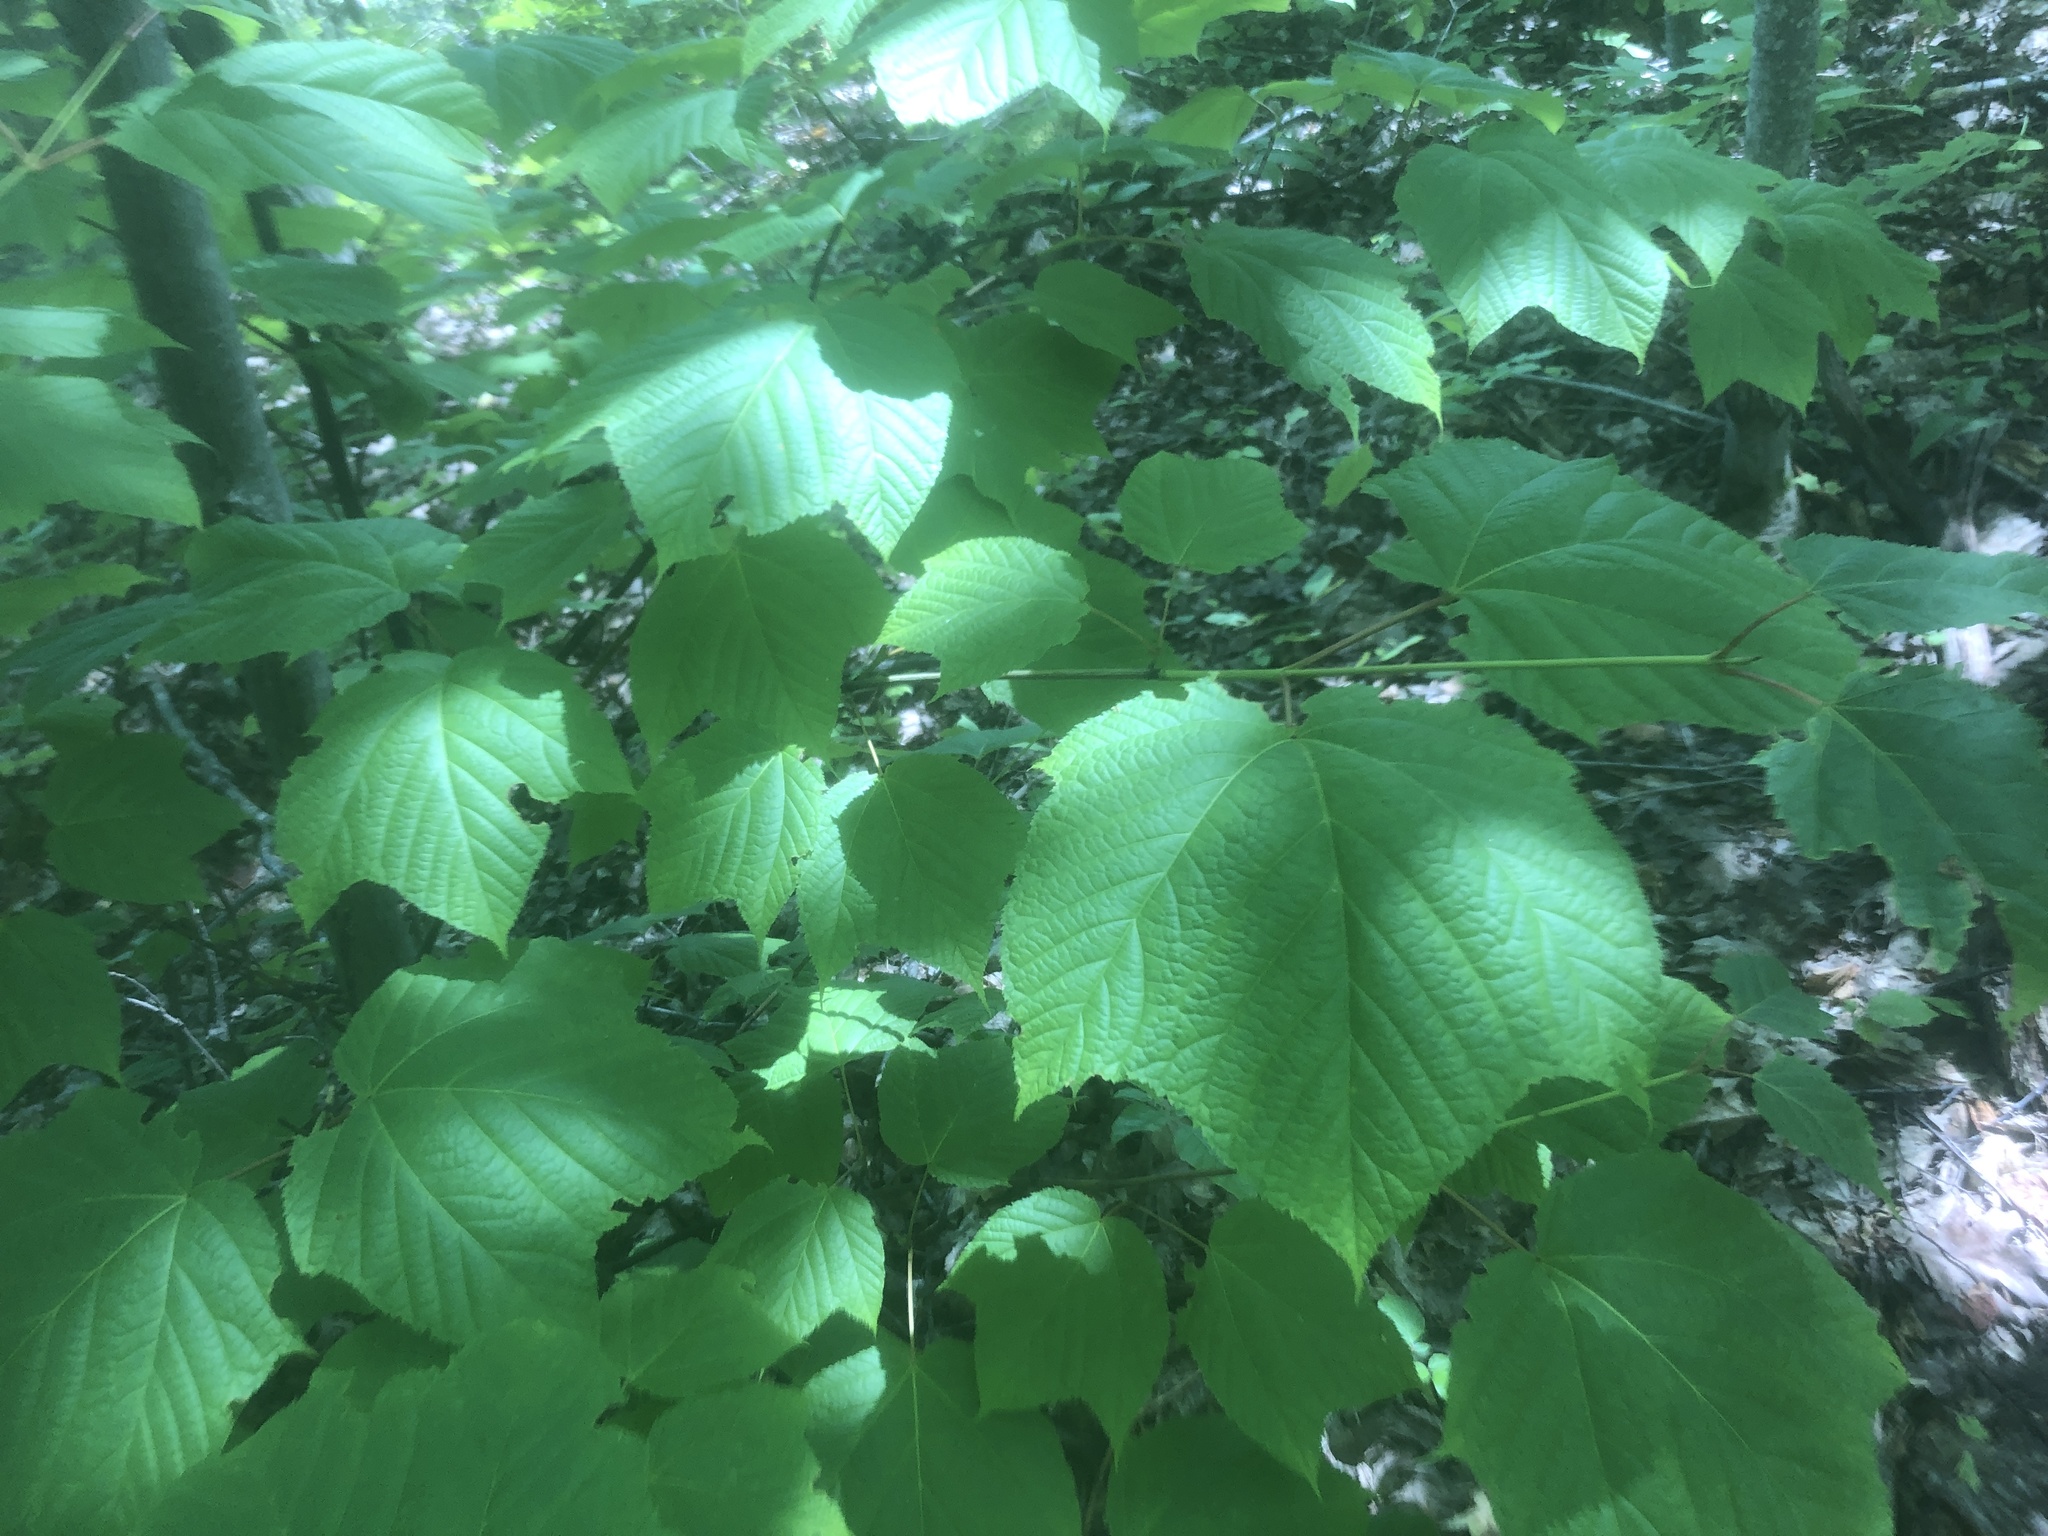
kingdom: Plantae
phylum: Tracheophyta
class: Magnoliopsida
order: Sapindales
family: Sapindaceae
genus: Acer
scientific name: Acer pensylvanicum
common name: Moosewood
